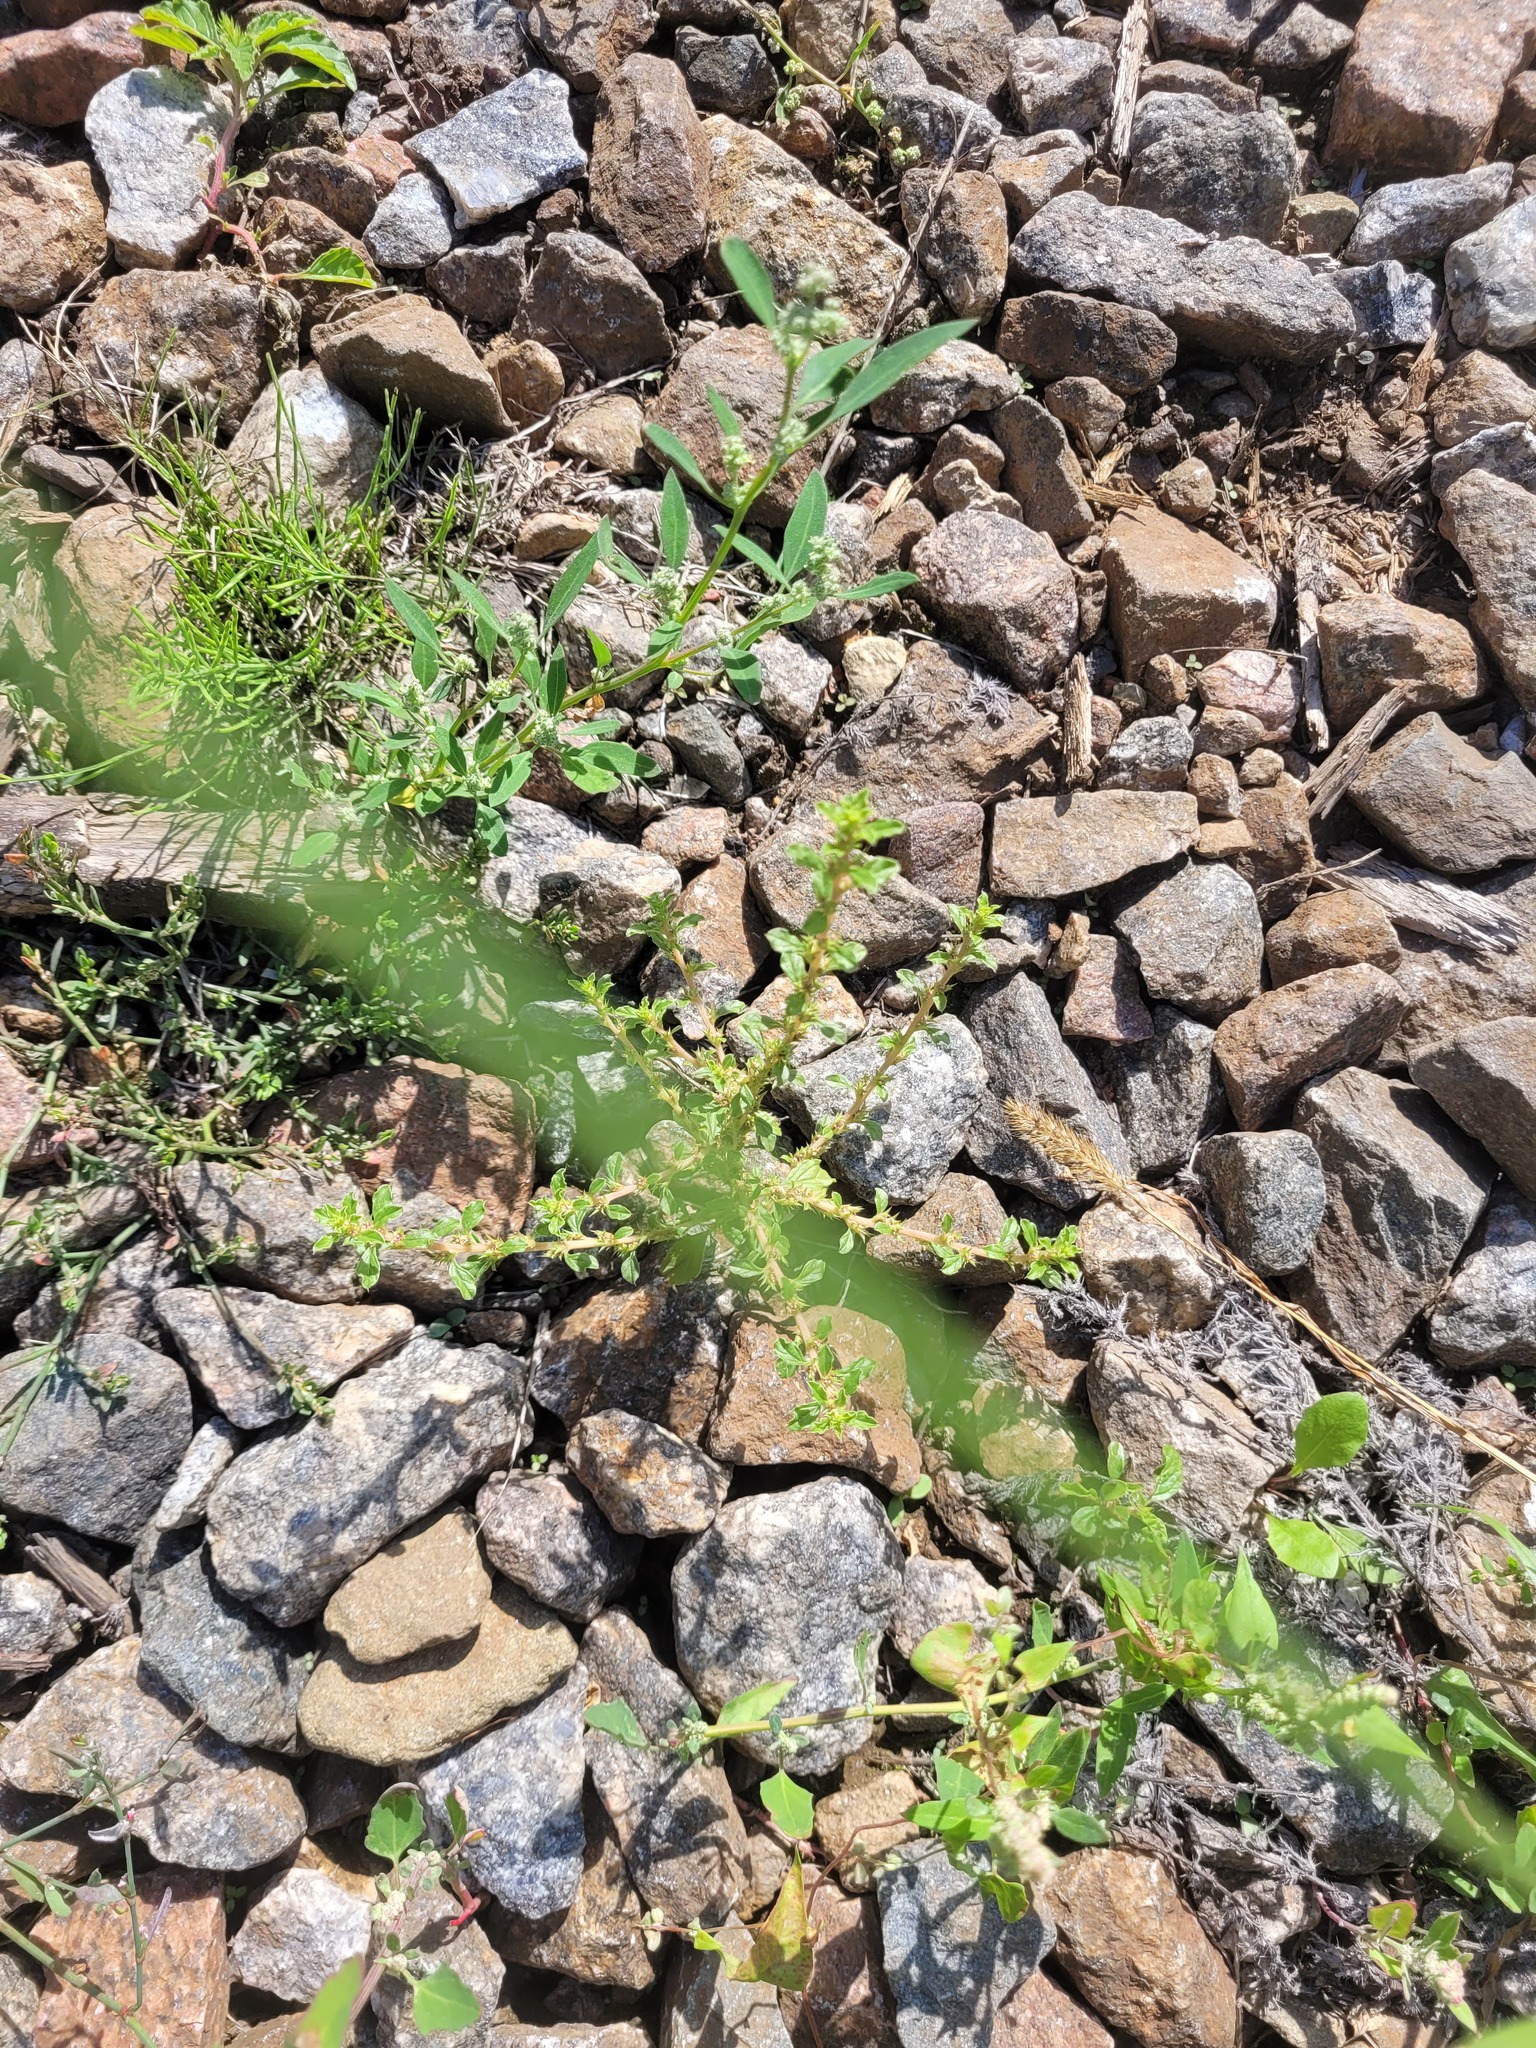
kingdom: Plantae
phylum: Tracheophyta
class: Magnoliopsida
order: Caryophyllales
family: Amaranthaceae
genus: Amaranthus
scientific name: Amaranthus albus
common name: White pigweed
